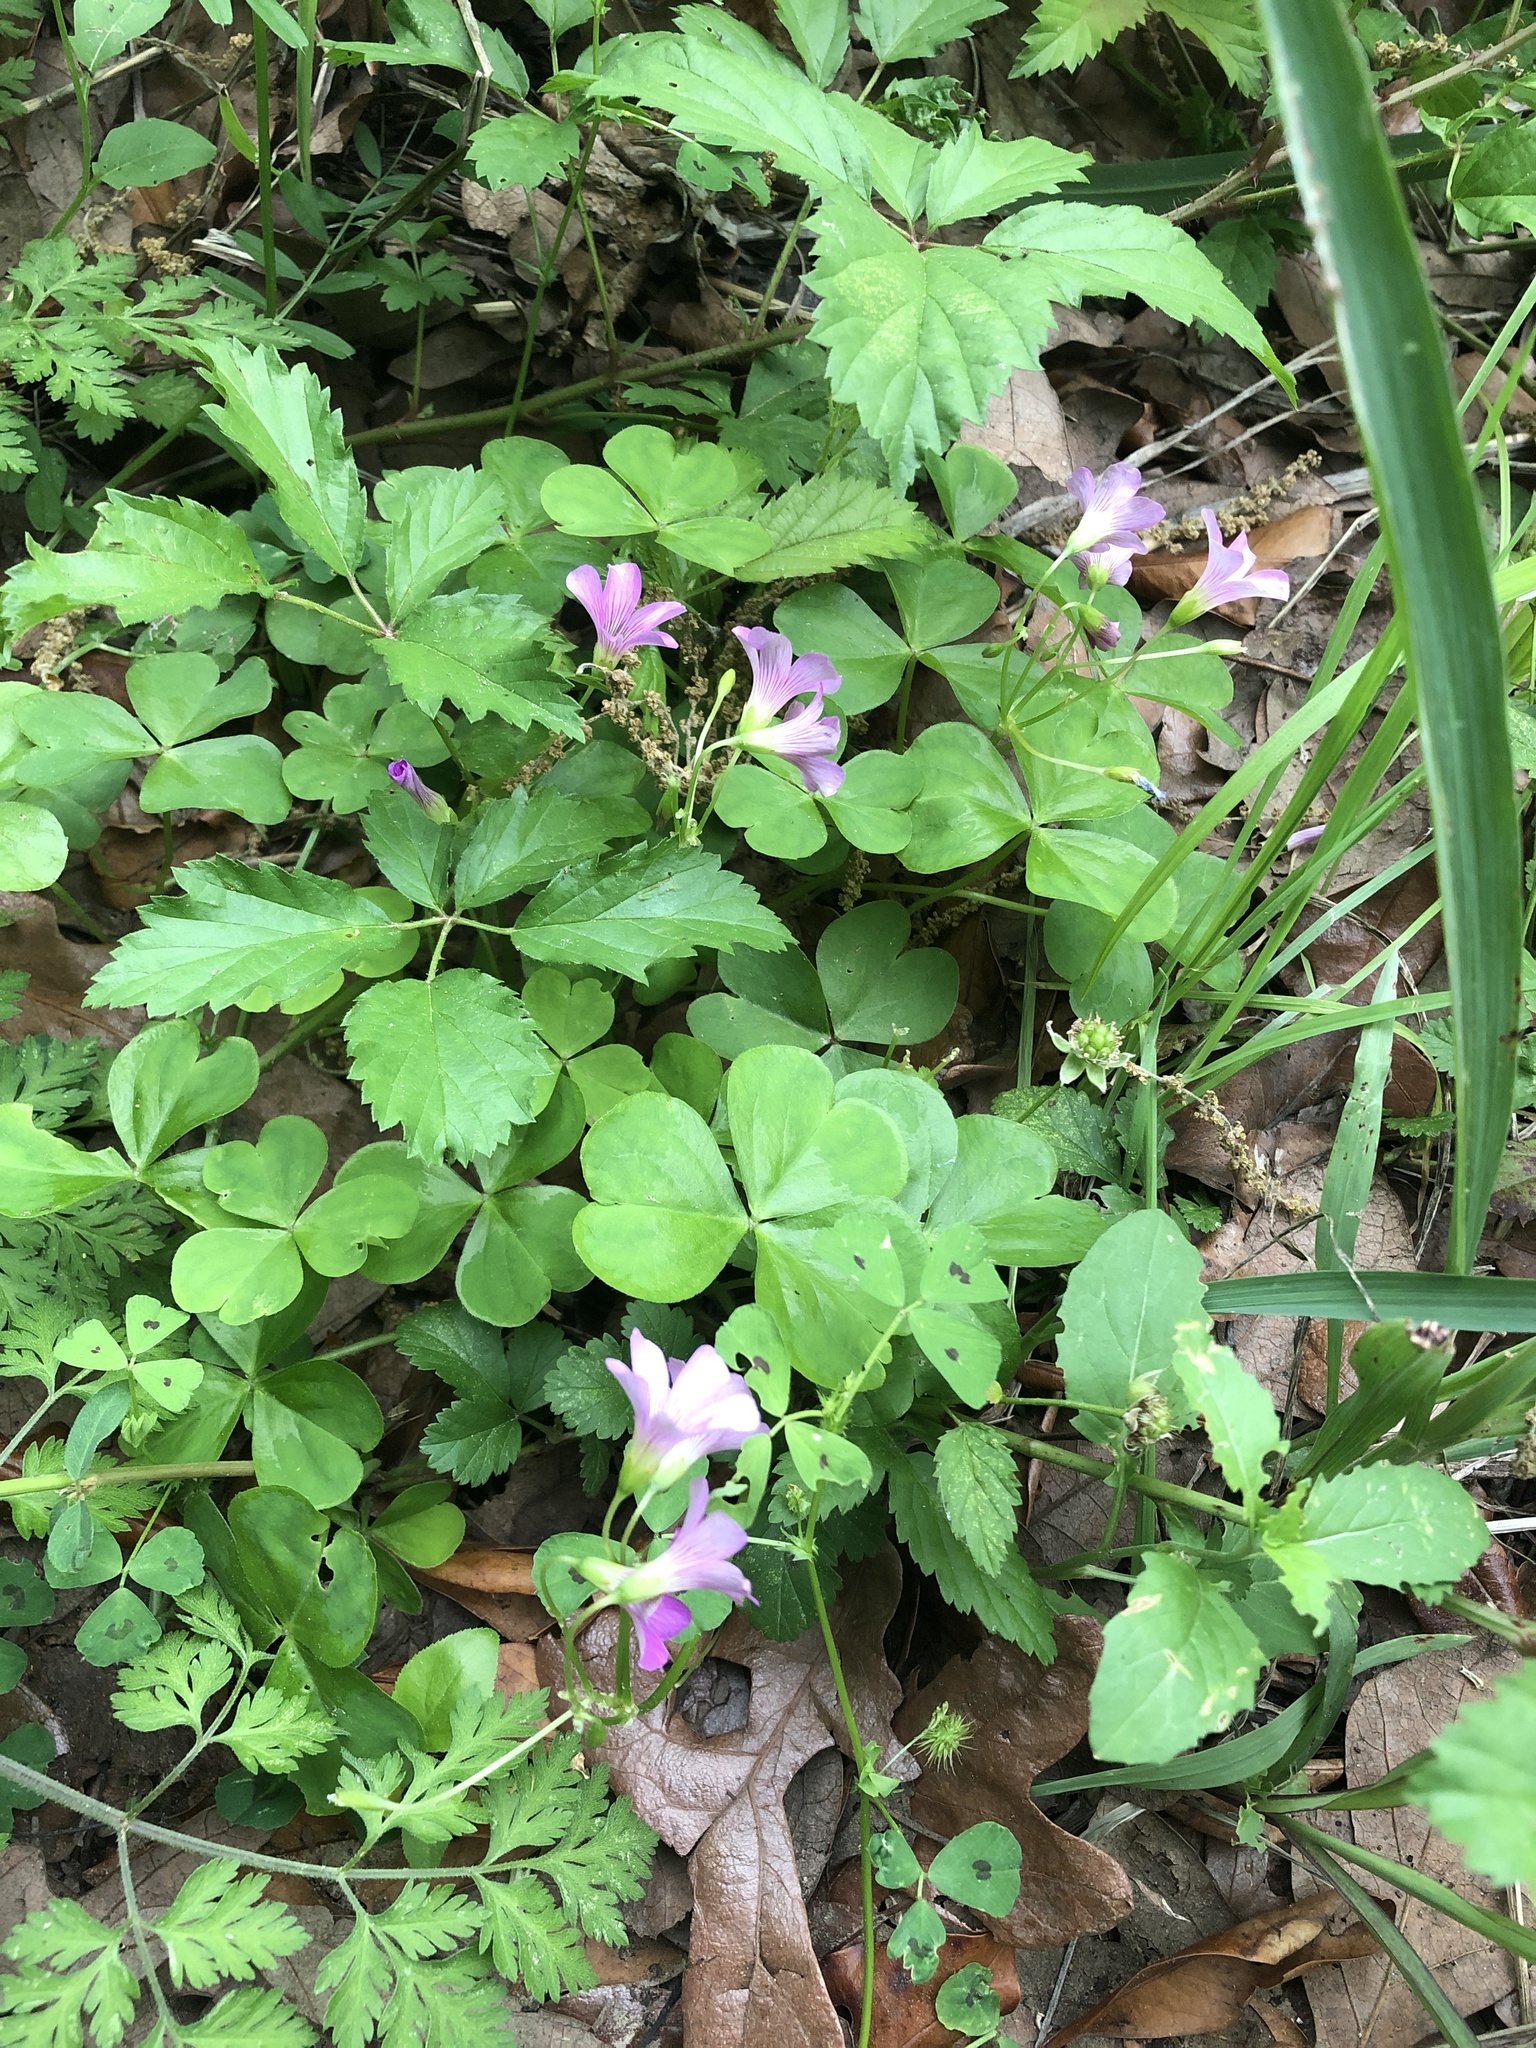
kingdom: Plantae
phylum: Tracheophyta
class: Magnoliopsida
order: Oxalidales
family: Oxalidaceae
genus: Oxalis
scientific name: Oxalis debilis
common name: Large-flowered pink-sorrel
